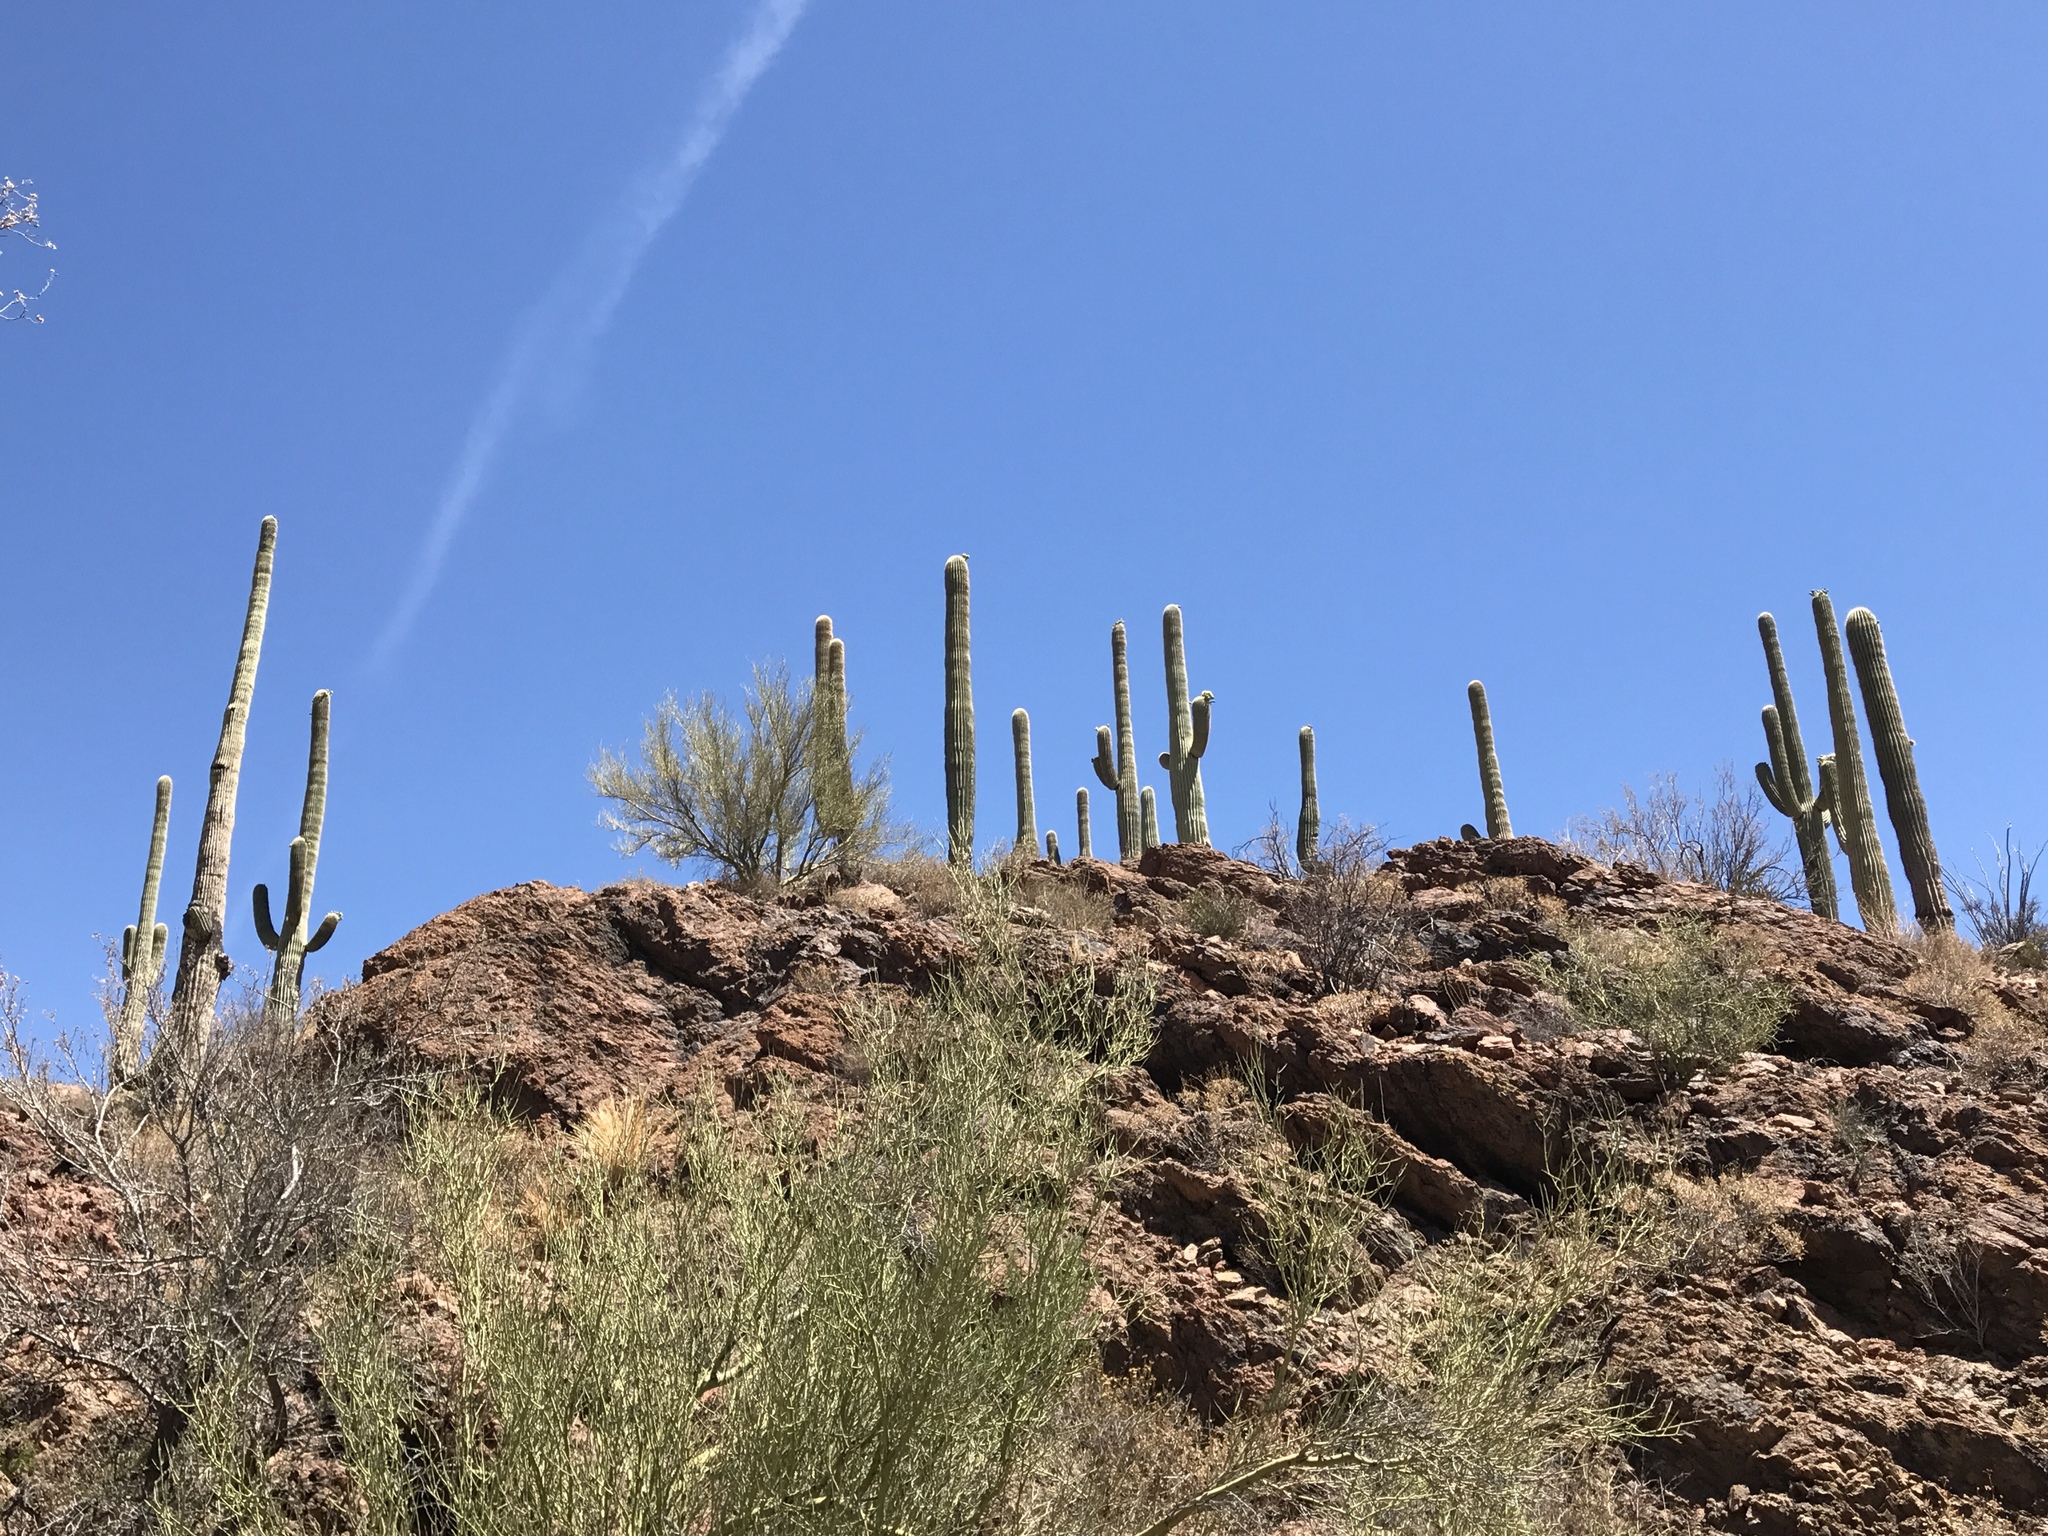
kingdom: Plantae
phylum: Tracheophyta
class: Magnoliopsida
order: Caryophyllales
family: Cactaceae
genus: Carnegiea
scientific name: Carnegiea gigantea
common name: Saguaro
